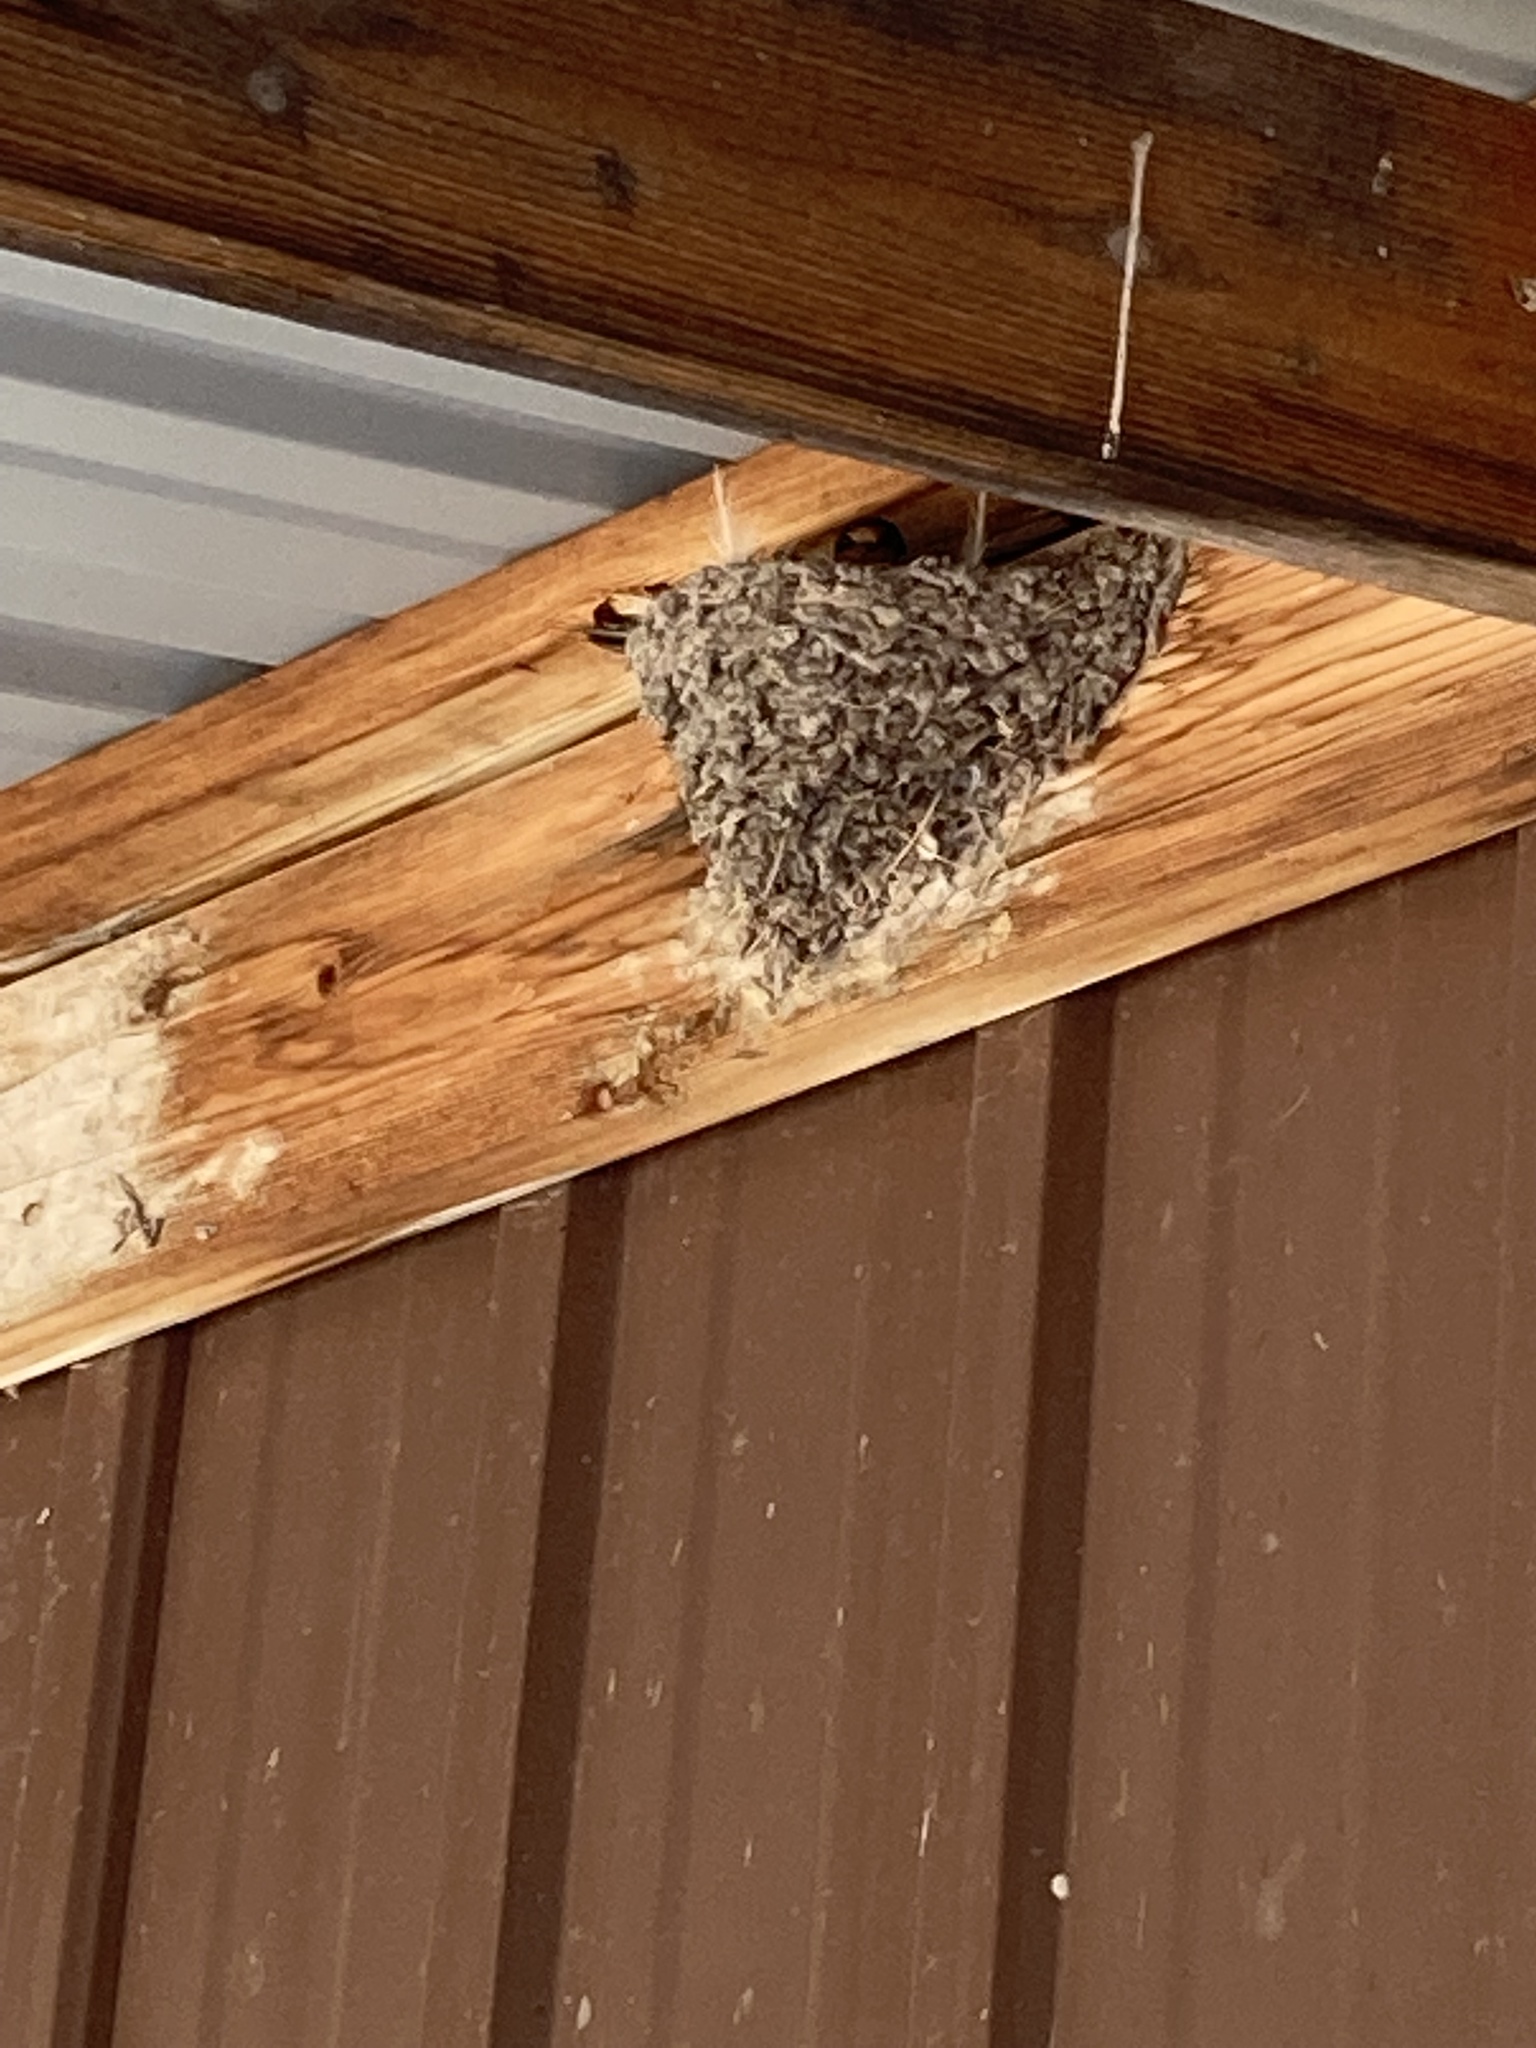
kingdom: Animalia
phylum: Chordata
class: Aves
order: Passeriformes
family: Hirundinidae
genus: Hirundo
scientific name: Hirundo rustica
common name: Barn swallow
